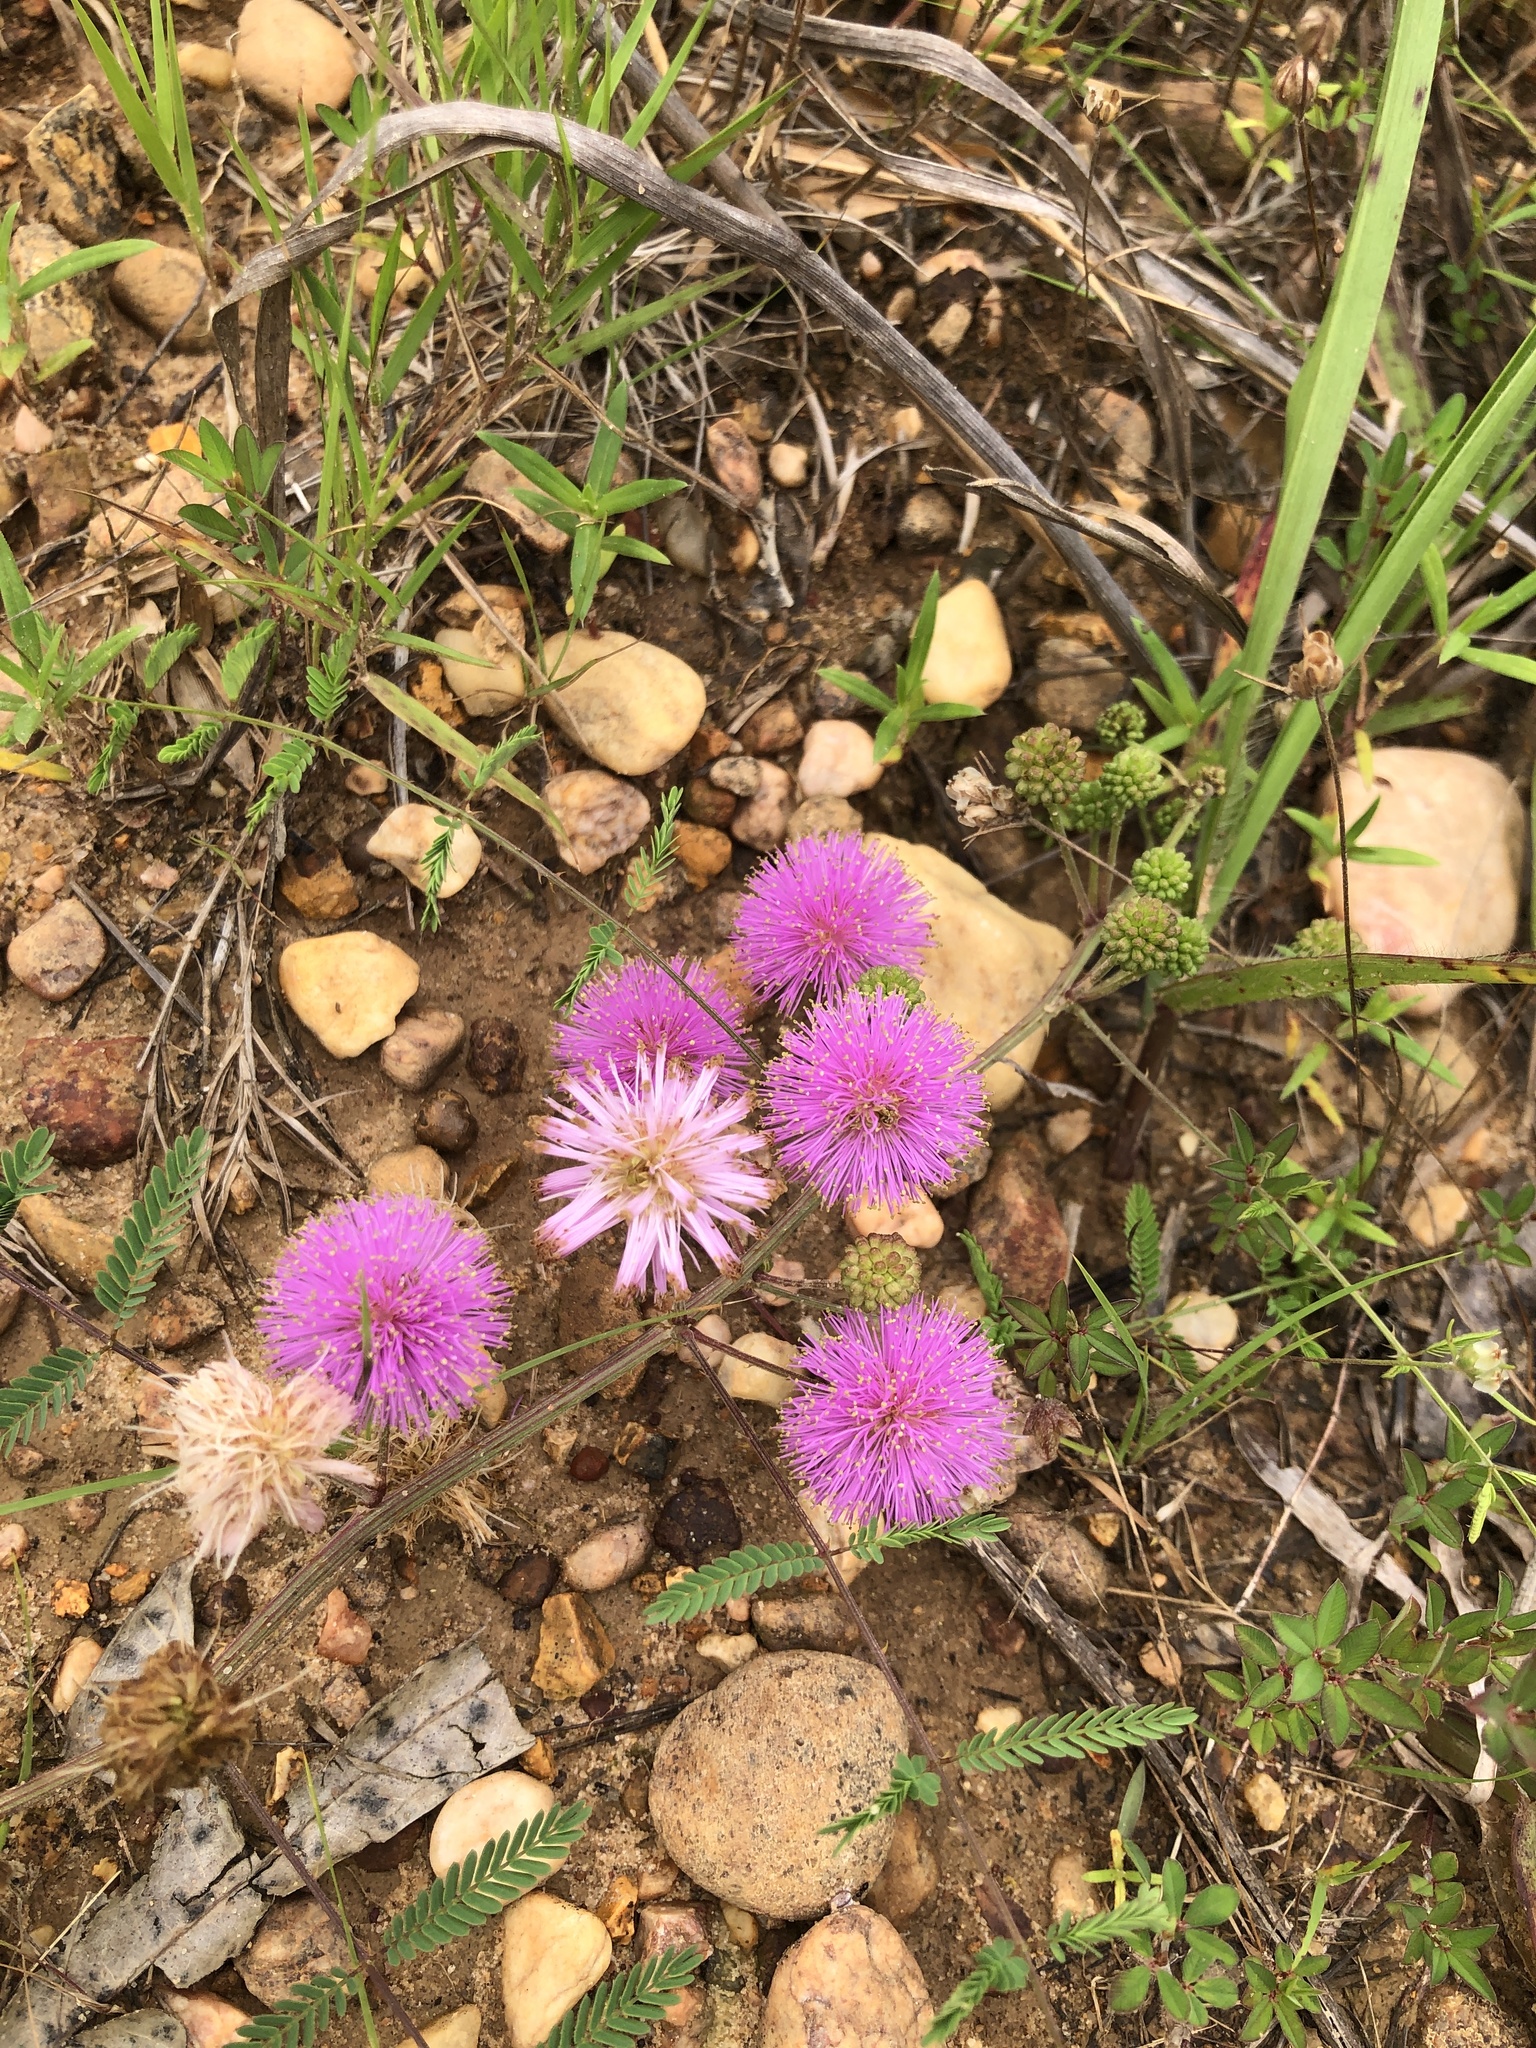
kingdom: Plantae
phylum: Tracheophyta
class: Magnoliopsida
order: Fabales
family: Fabaceae
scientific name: Fabaceae
